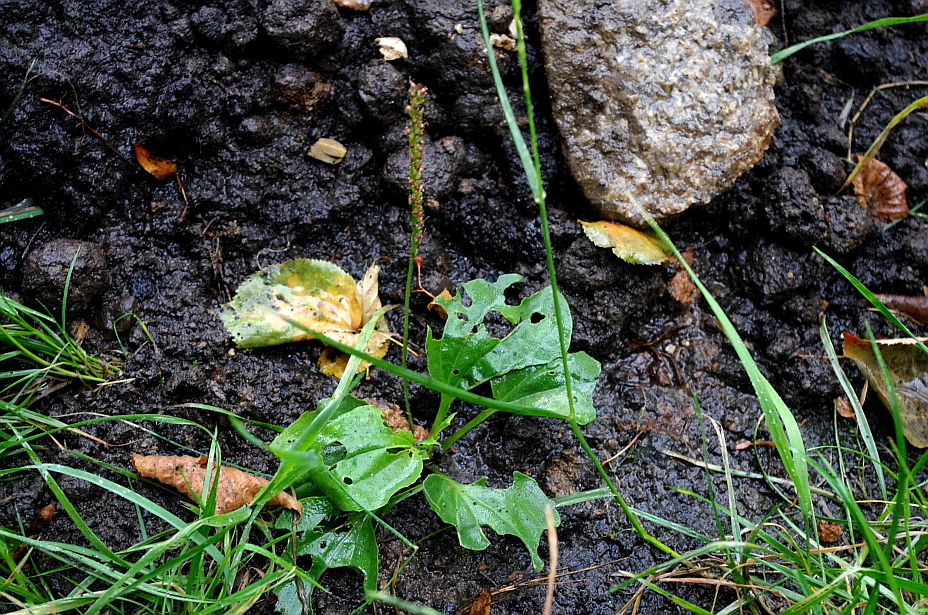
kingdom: Plantae
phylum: Tracheophyta
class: Magnoliopsida
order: Lamiales
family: Plantaginaceae
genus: Plantago
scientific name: Plantago major
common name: Common plantain
